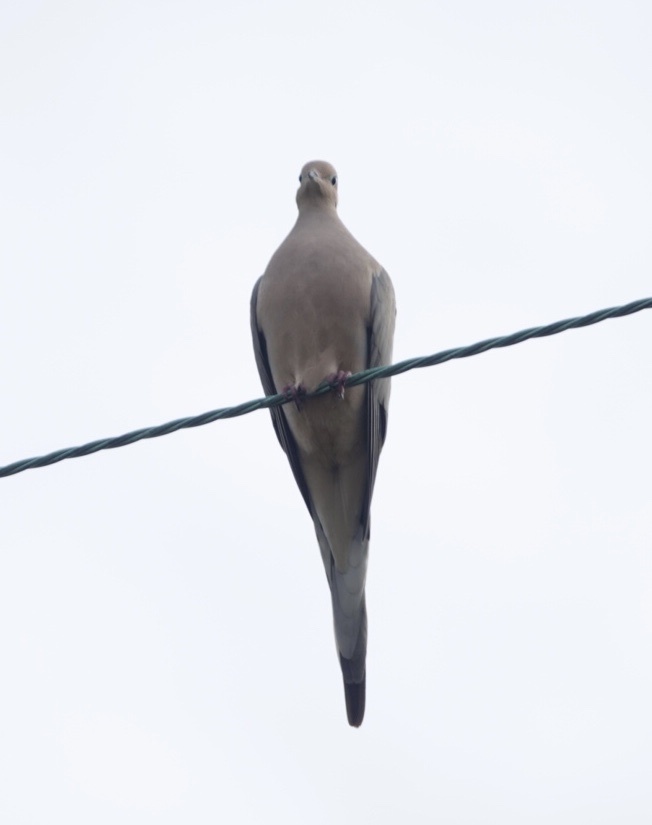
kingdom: Animalia
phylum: Chordata
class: Aves
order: Columbiformes
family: Columbidae
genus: Zenaida
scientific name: Zenaida macroura
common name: Mourning dove
